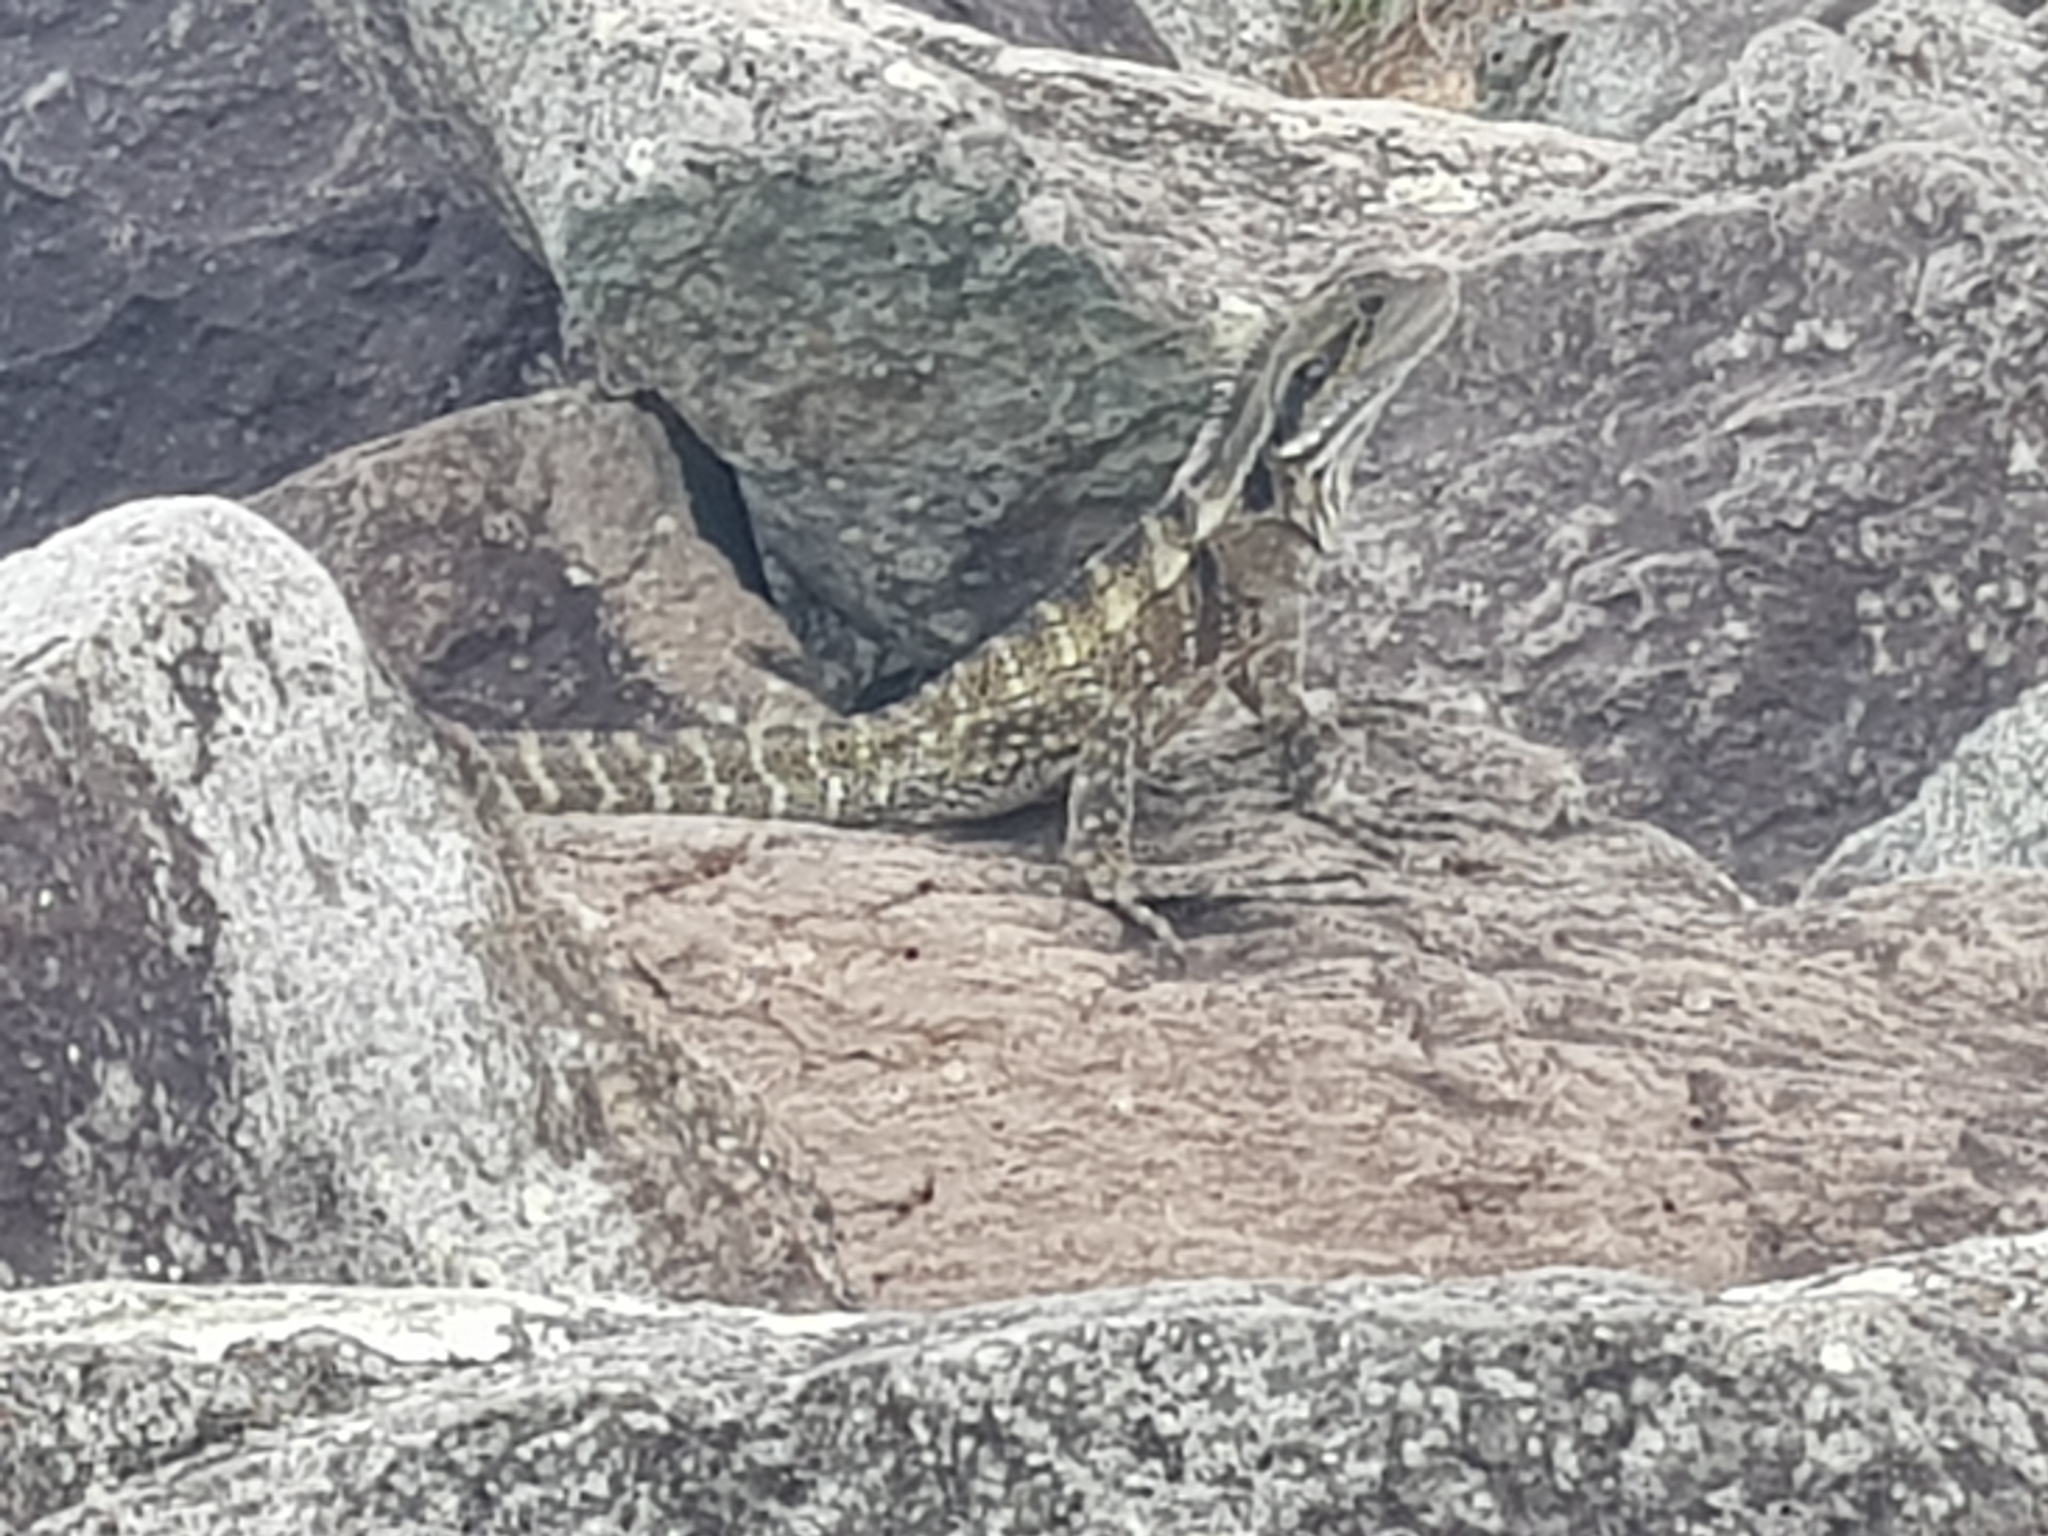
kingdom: Animalia
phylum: Chordata
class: Squamata
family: Agamidae
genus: Intellagama
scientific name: Intellagama lesueurii
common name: Eastern water dragon
